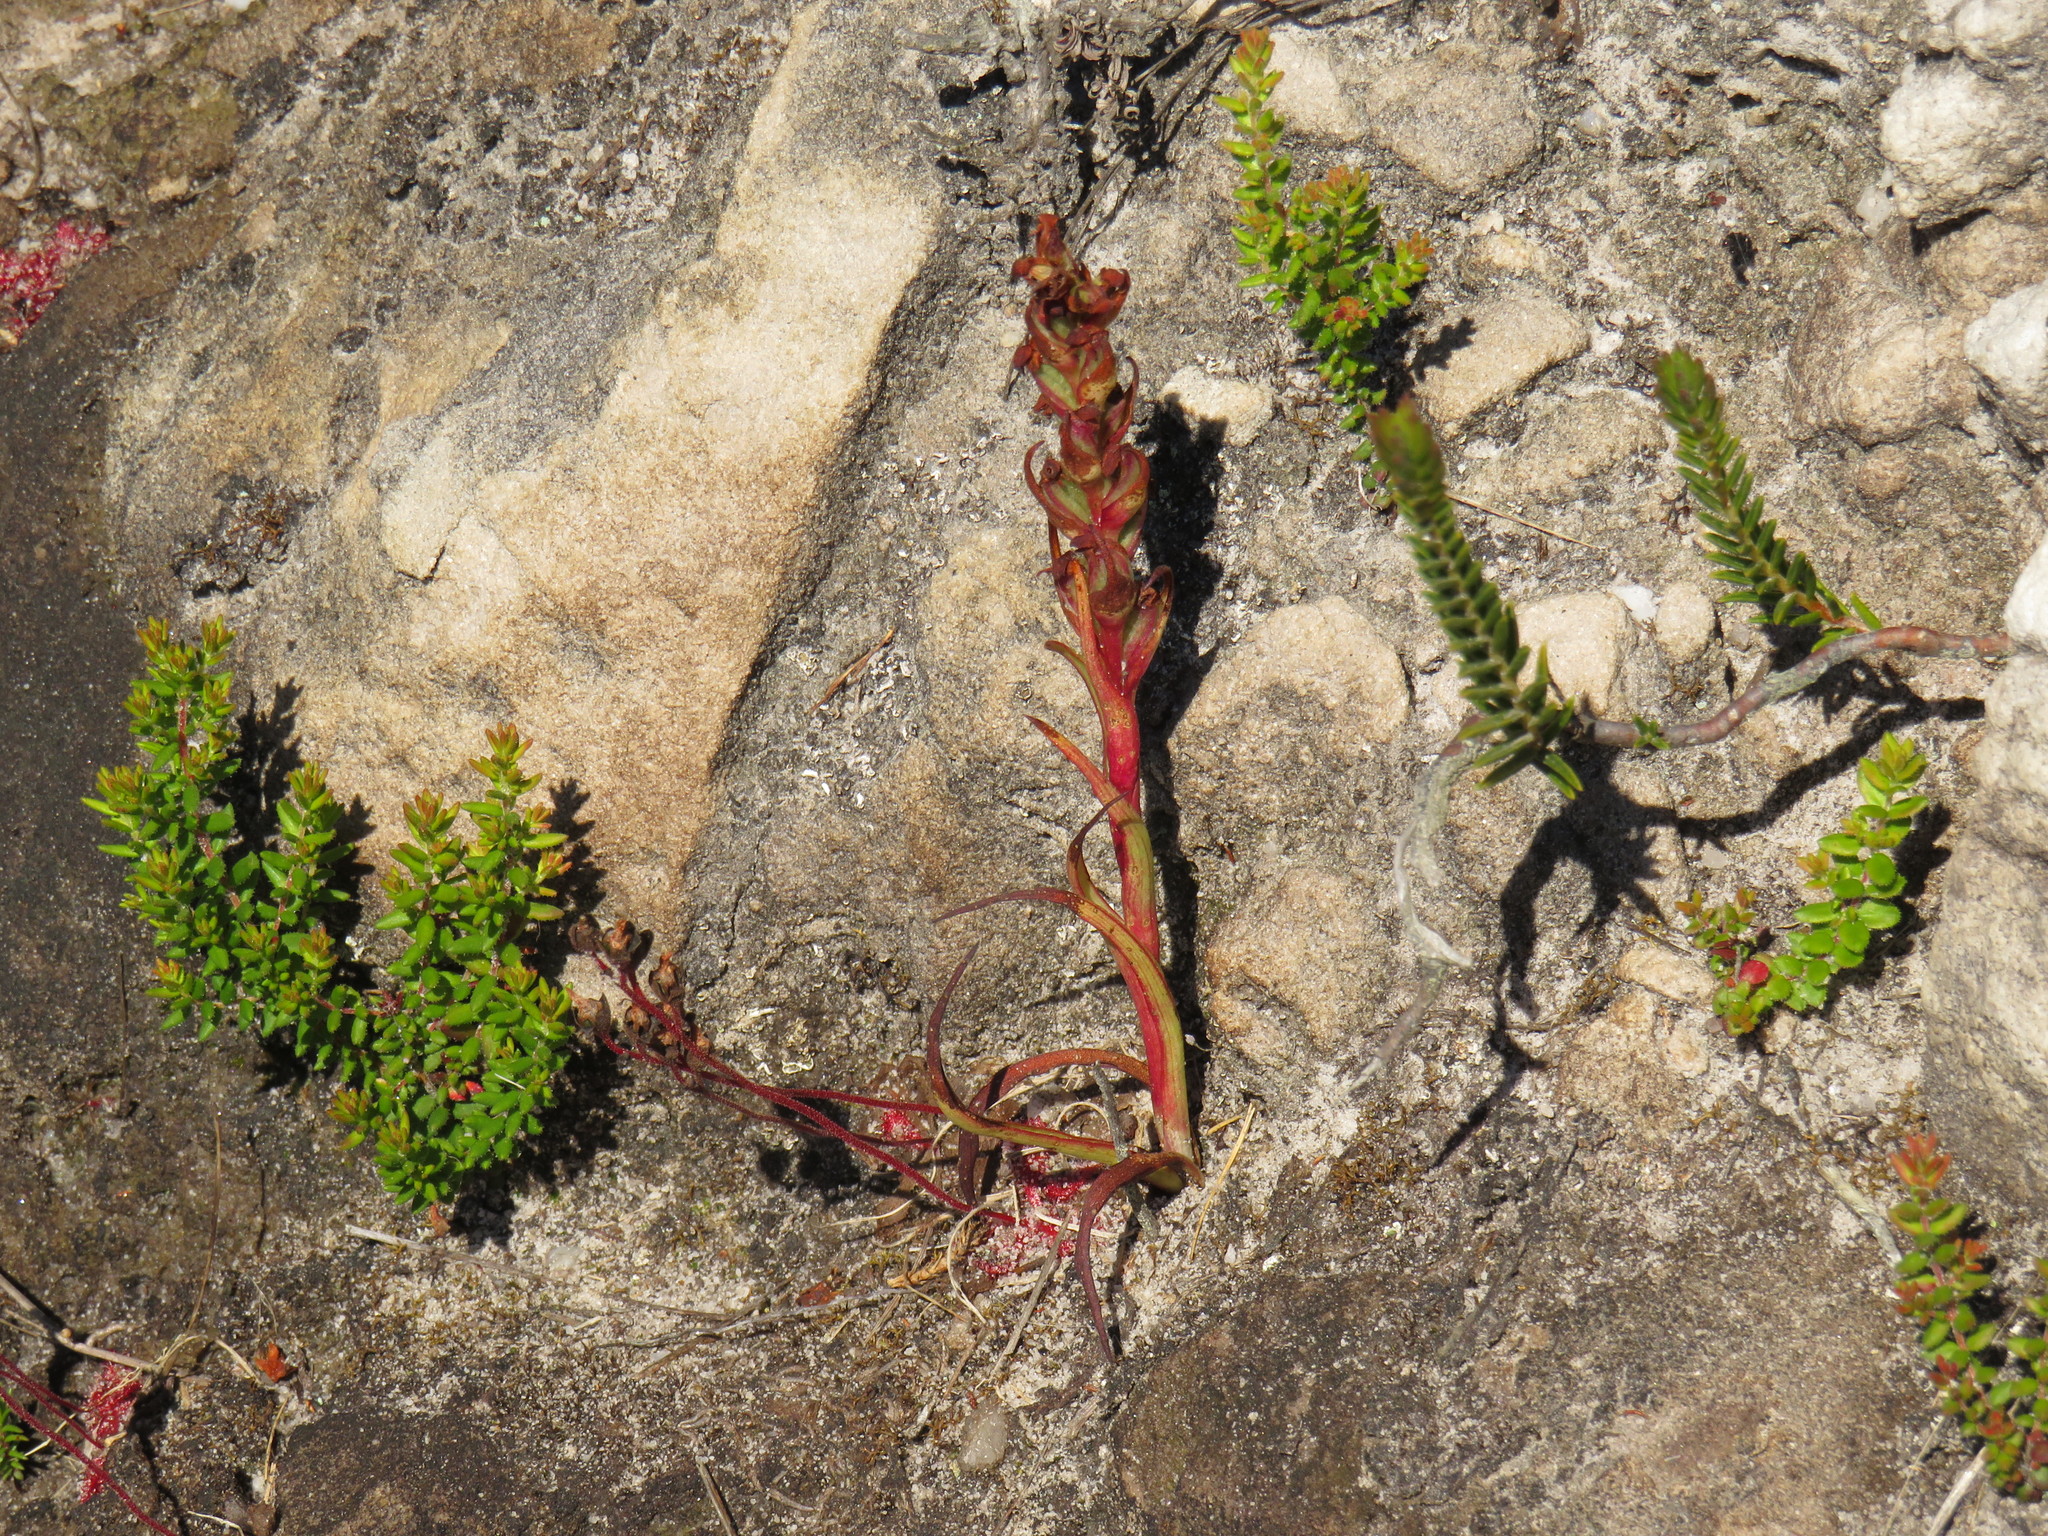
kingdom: Plantae
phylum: Tracheophyta
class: Liliopsida
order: Asparagales
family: Orchidaceae
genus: Disa
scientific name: Disa bracteata
